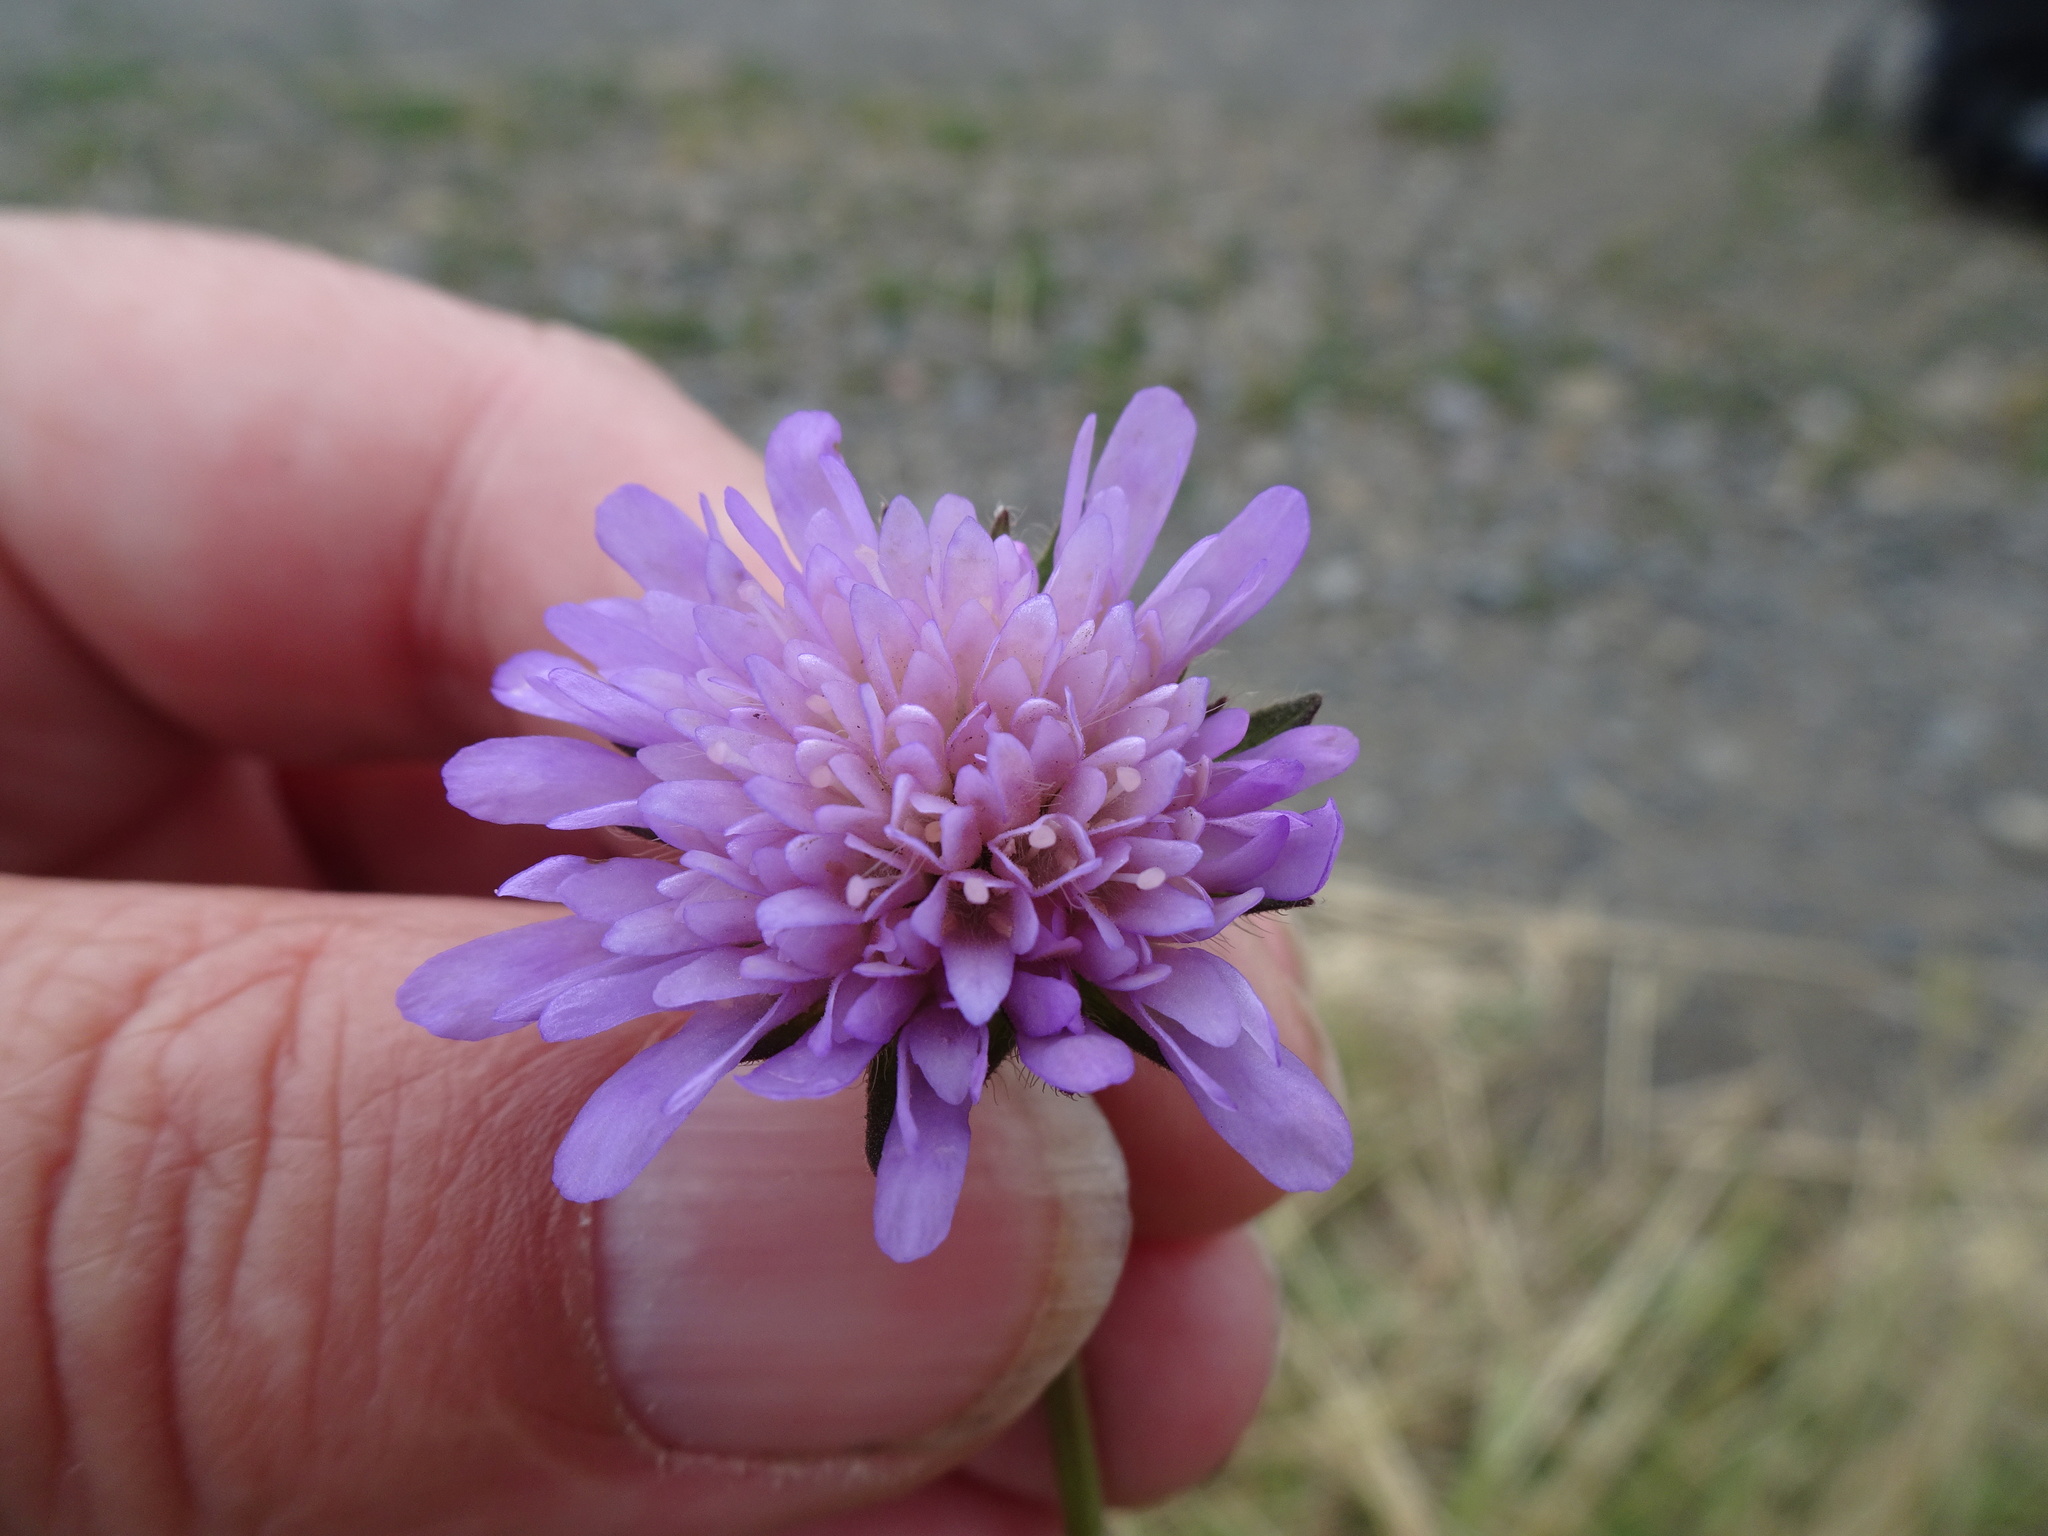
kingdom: Plantae
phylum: Tracheophyta
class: Magnoliopsida
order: Dipsacales
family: Caprifoliaceae
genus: Knautia
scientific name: Knautia arvensis
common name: Field scabiosa
